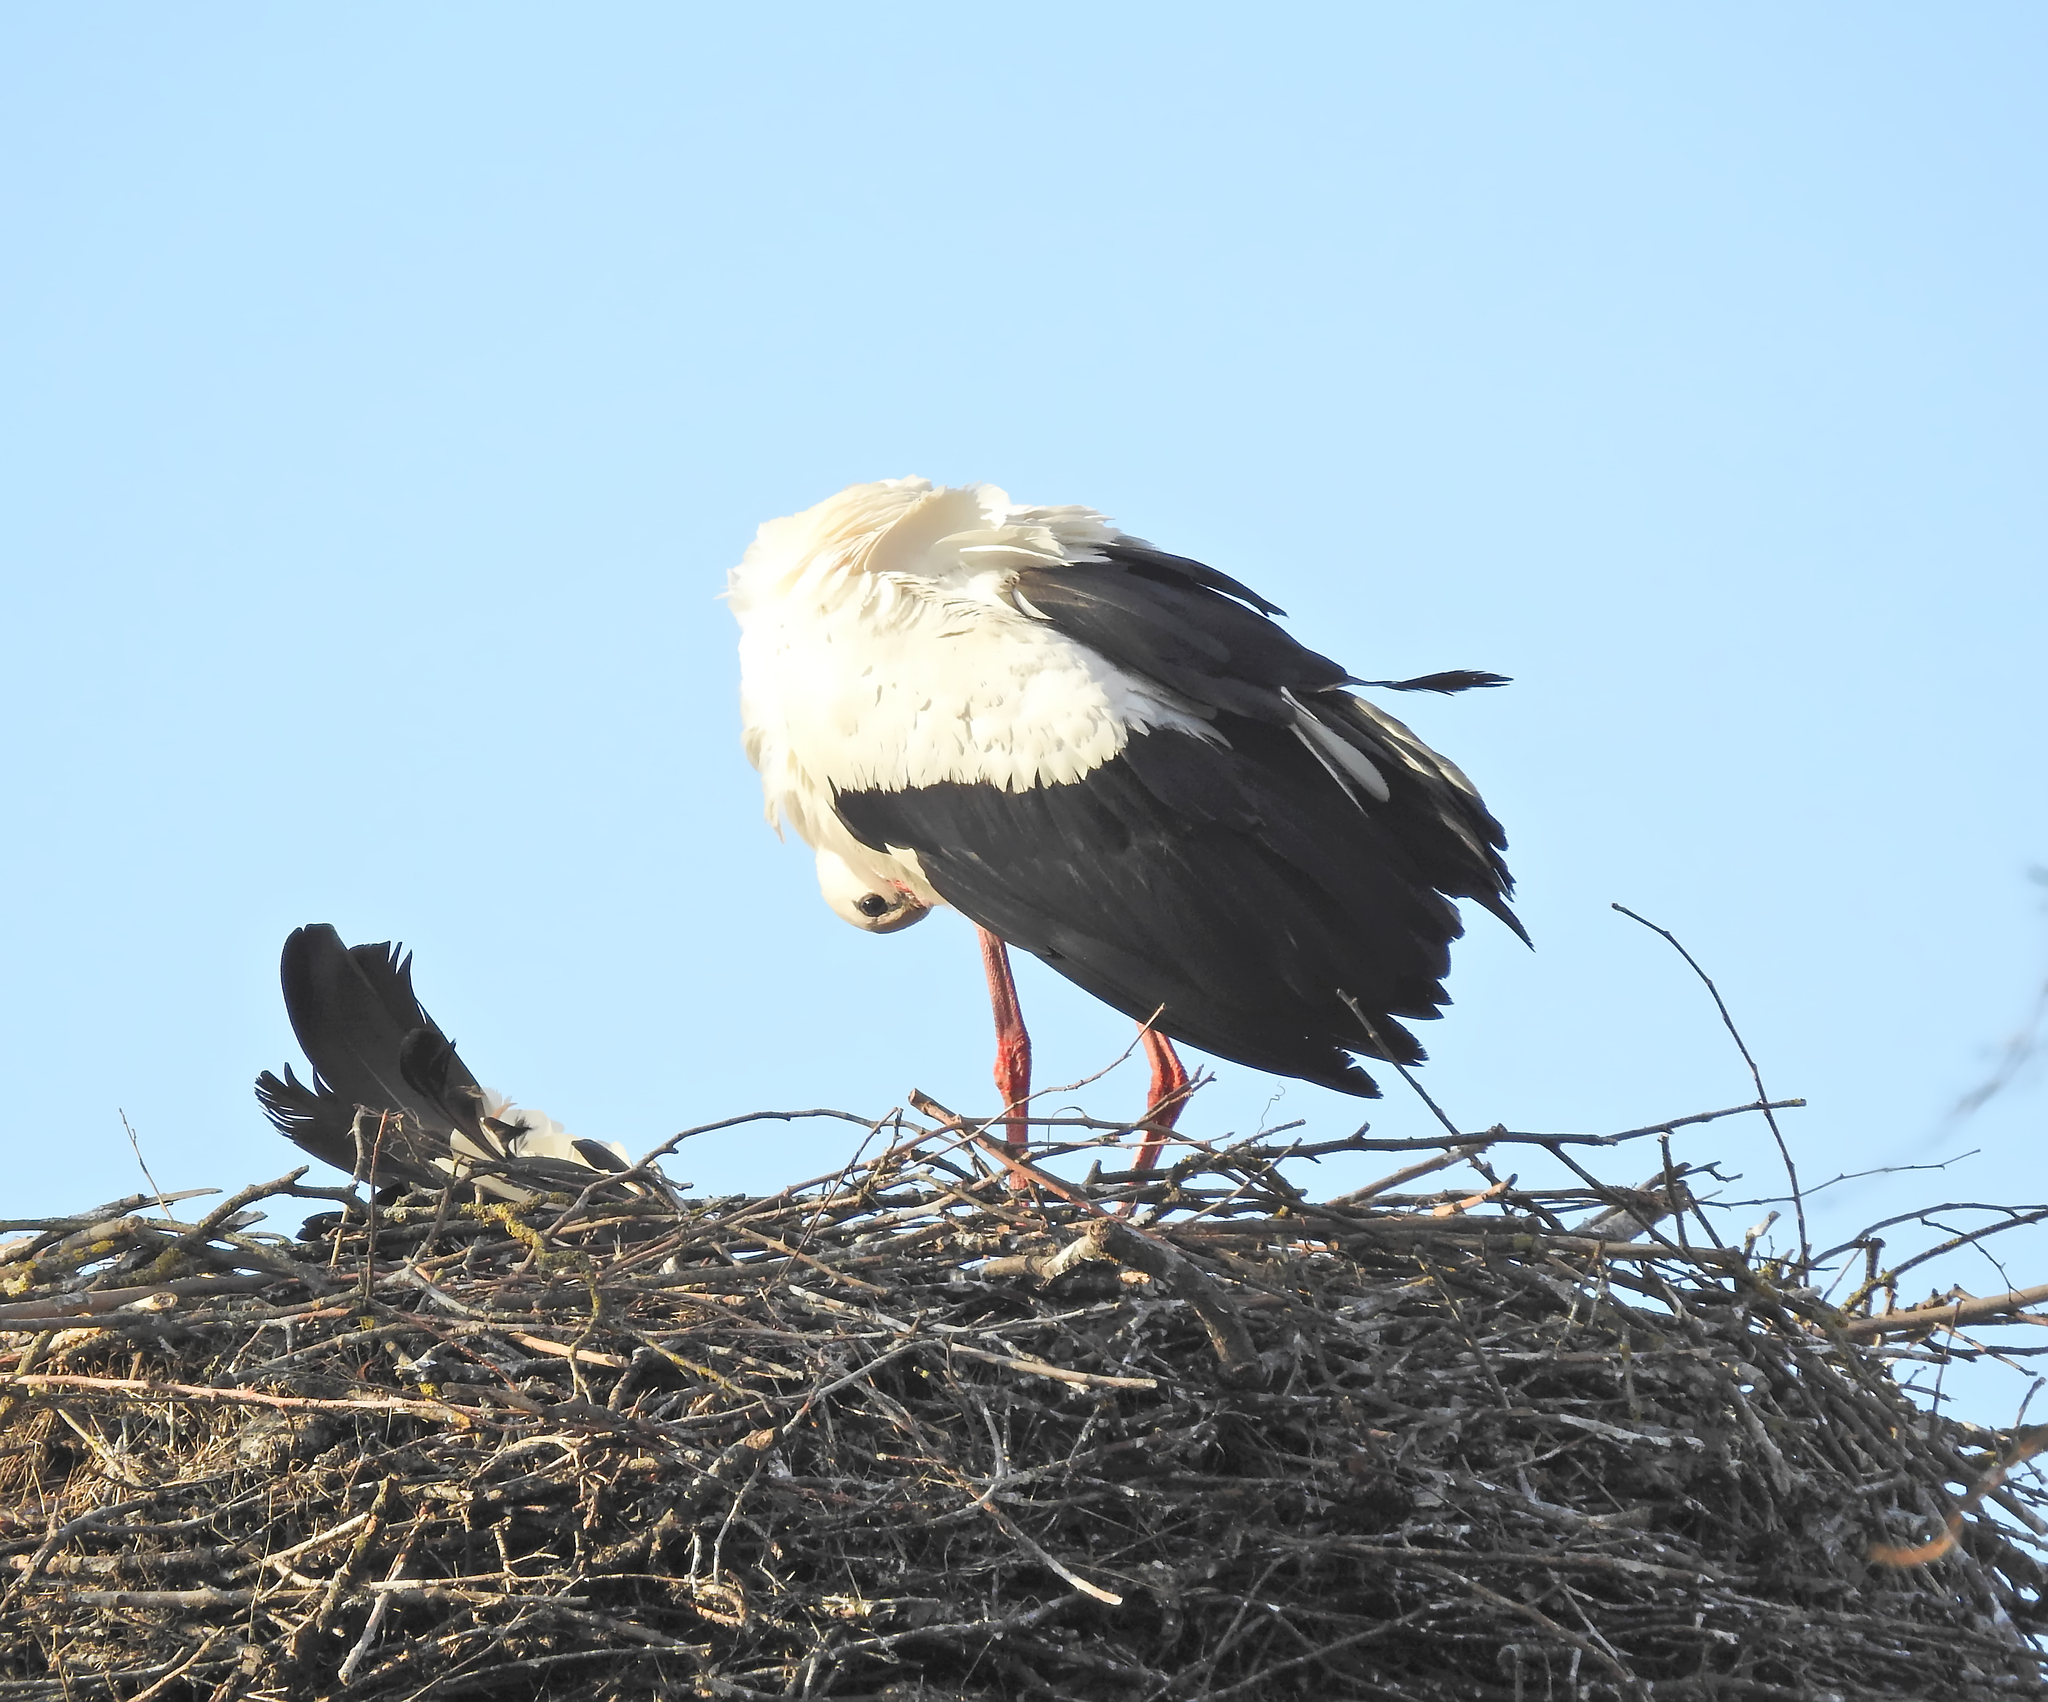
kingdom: Animalia
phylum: Chordata
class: Aves
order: Ciconiiformes
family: Ciconiidae
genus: Ciconia
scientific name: Ciconia ciconia
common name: White stork
